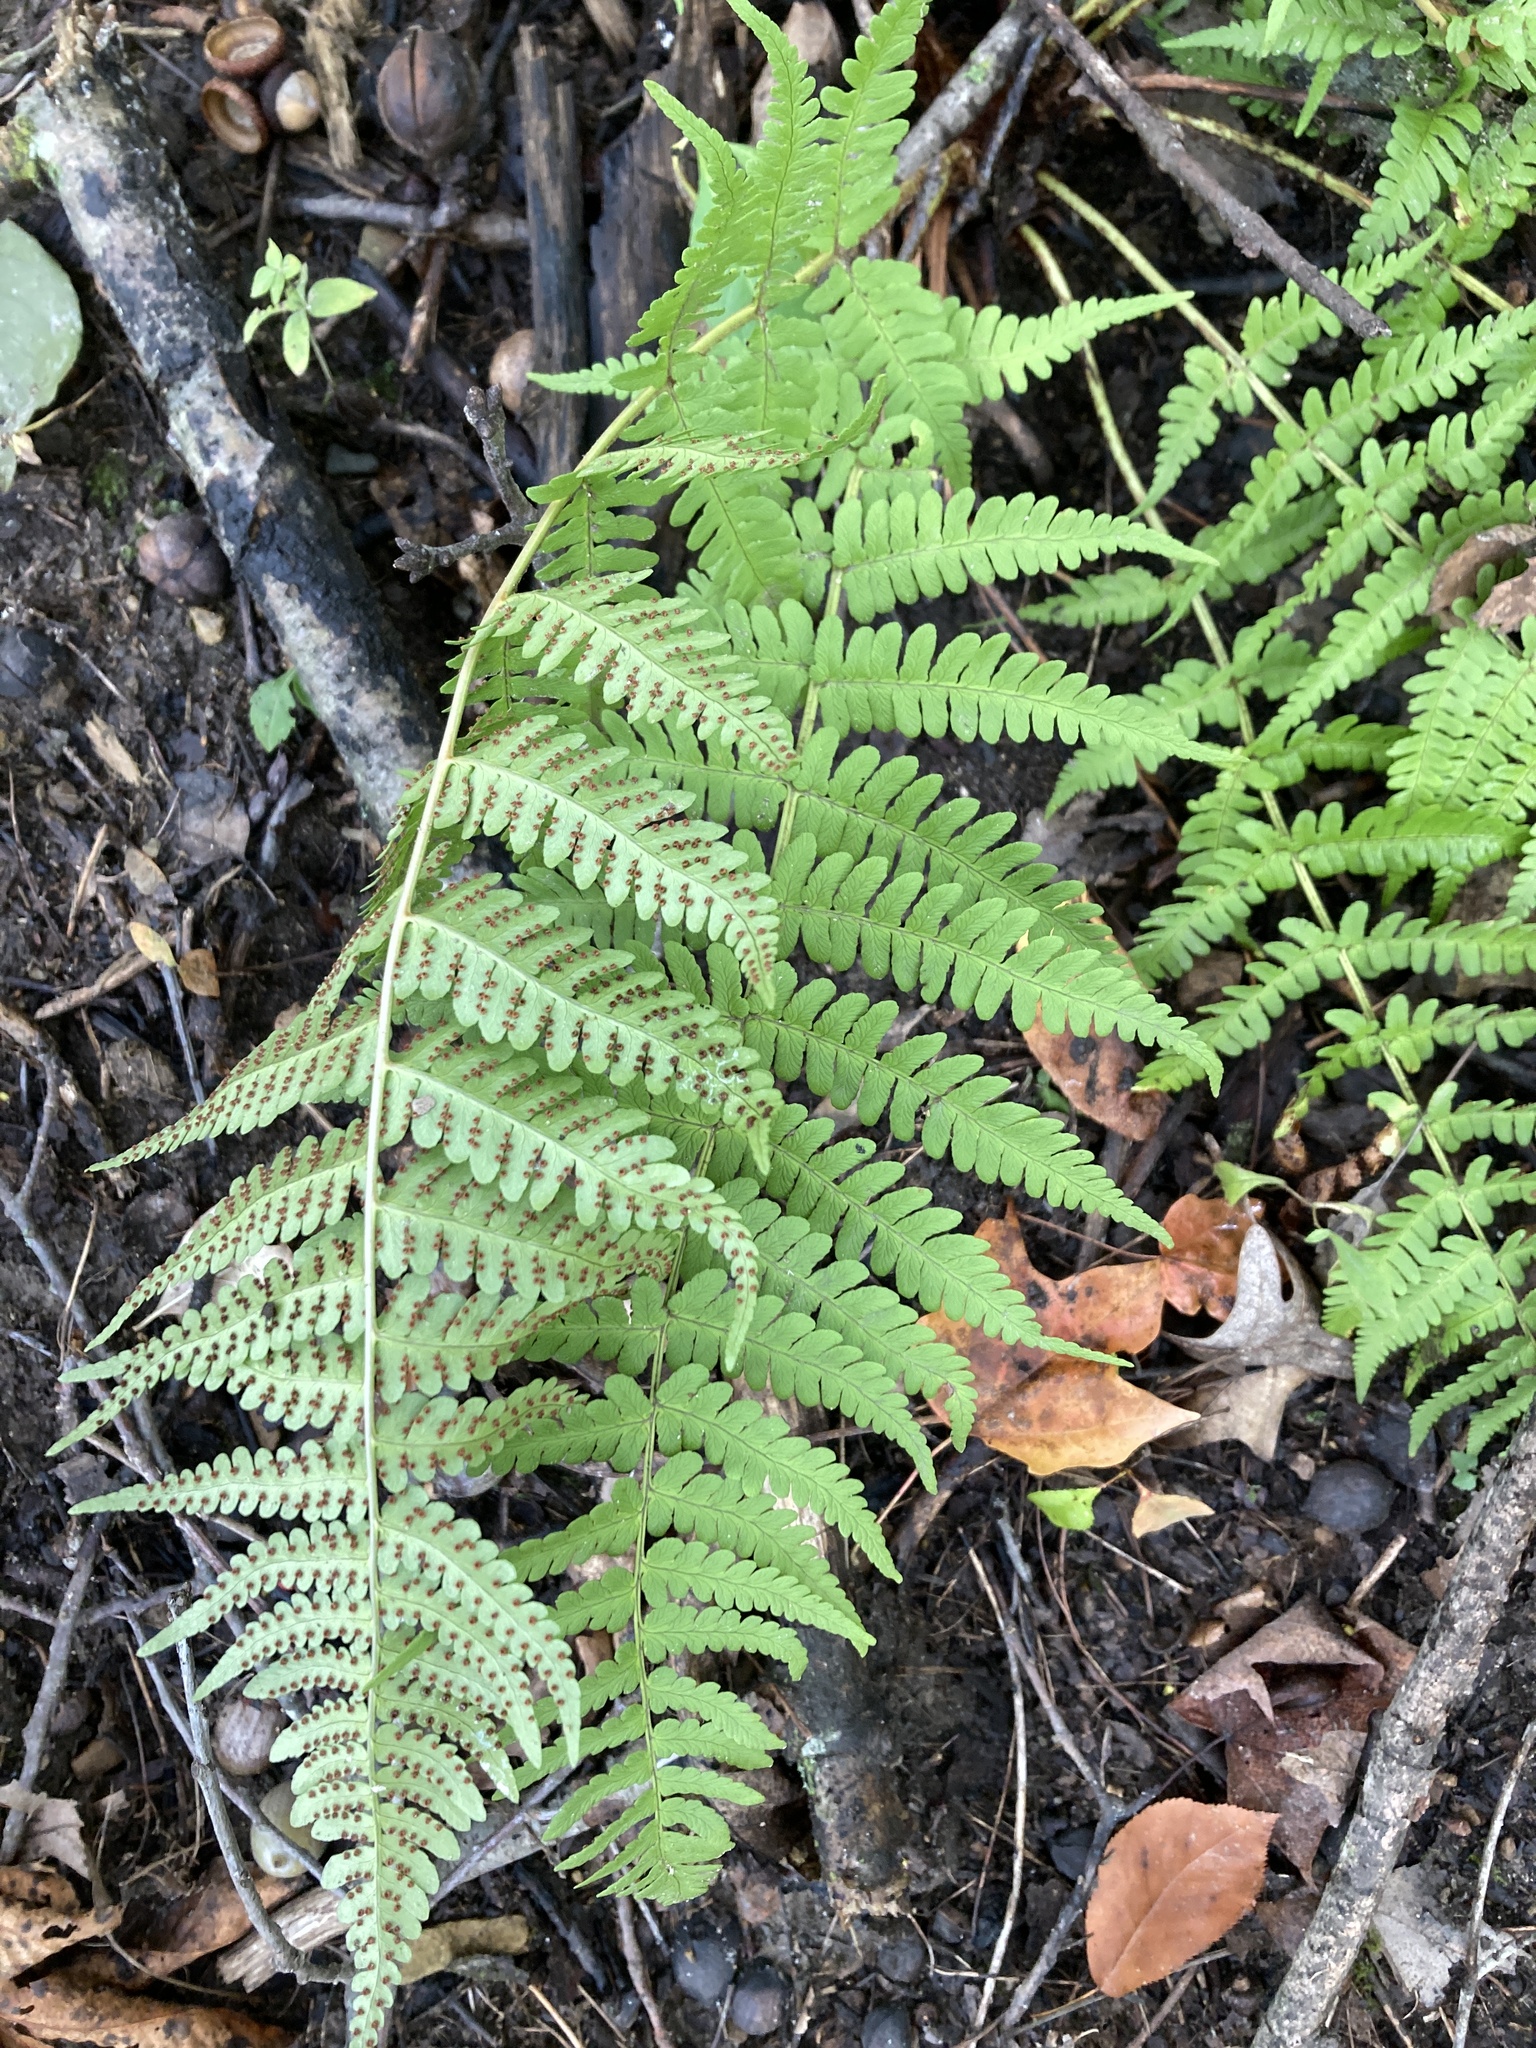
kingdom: Plantae
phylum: Tracheophyta
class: Polypodiopsida
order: Polypodiales
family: Dryopteridaceae
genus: Dryopteris
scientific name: Dryopteris marginalis
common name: Marginal wood fern
